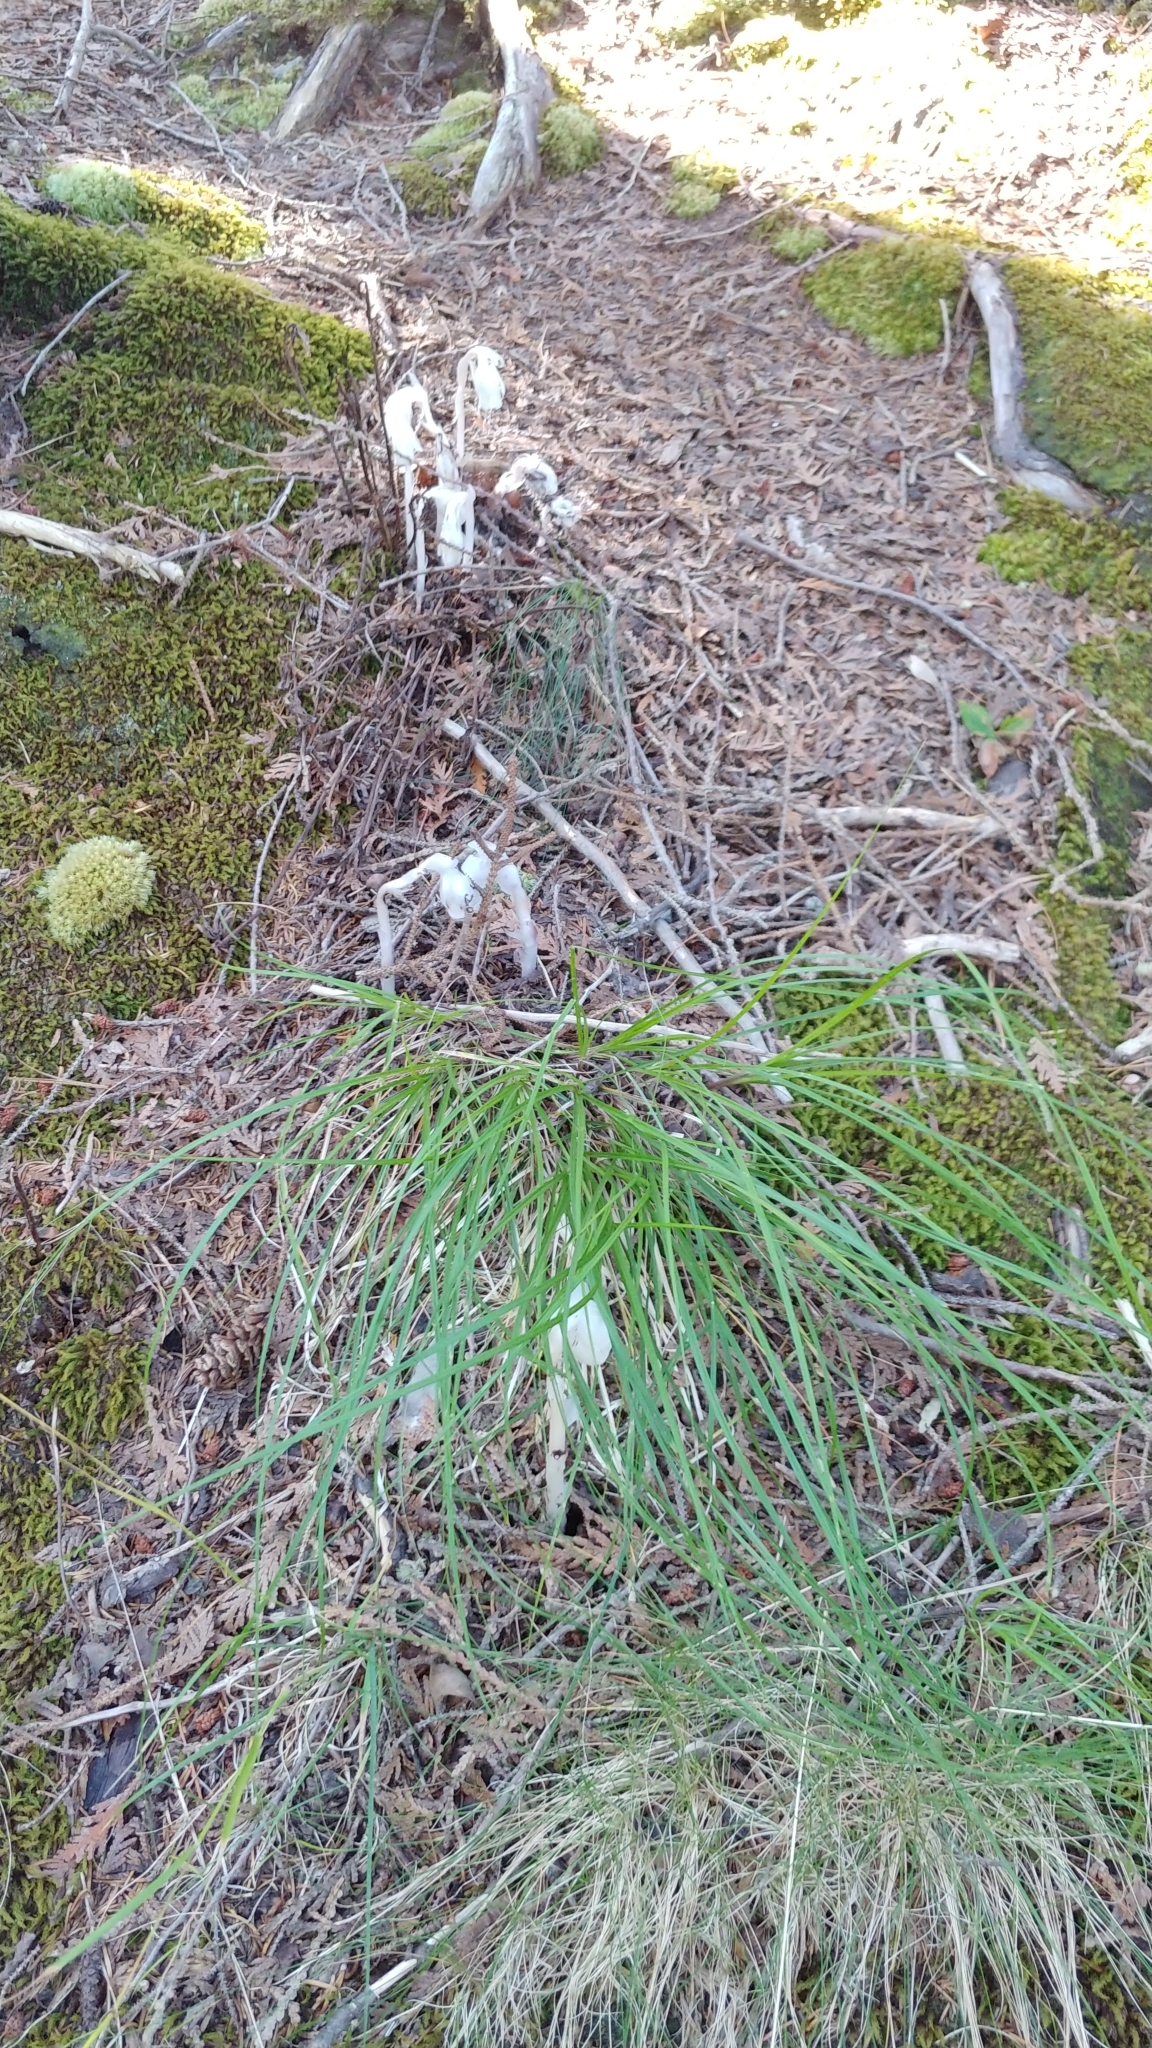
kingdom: Plantae
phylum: Tracheophyta
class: Magnoliopsida
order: Ericales
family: Ericaceae
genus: Monotropa
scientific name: Monotropa uniflora
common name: Convulsion root
